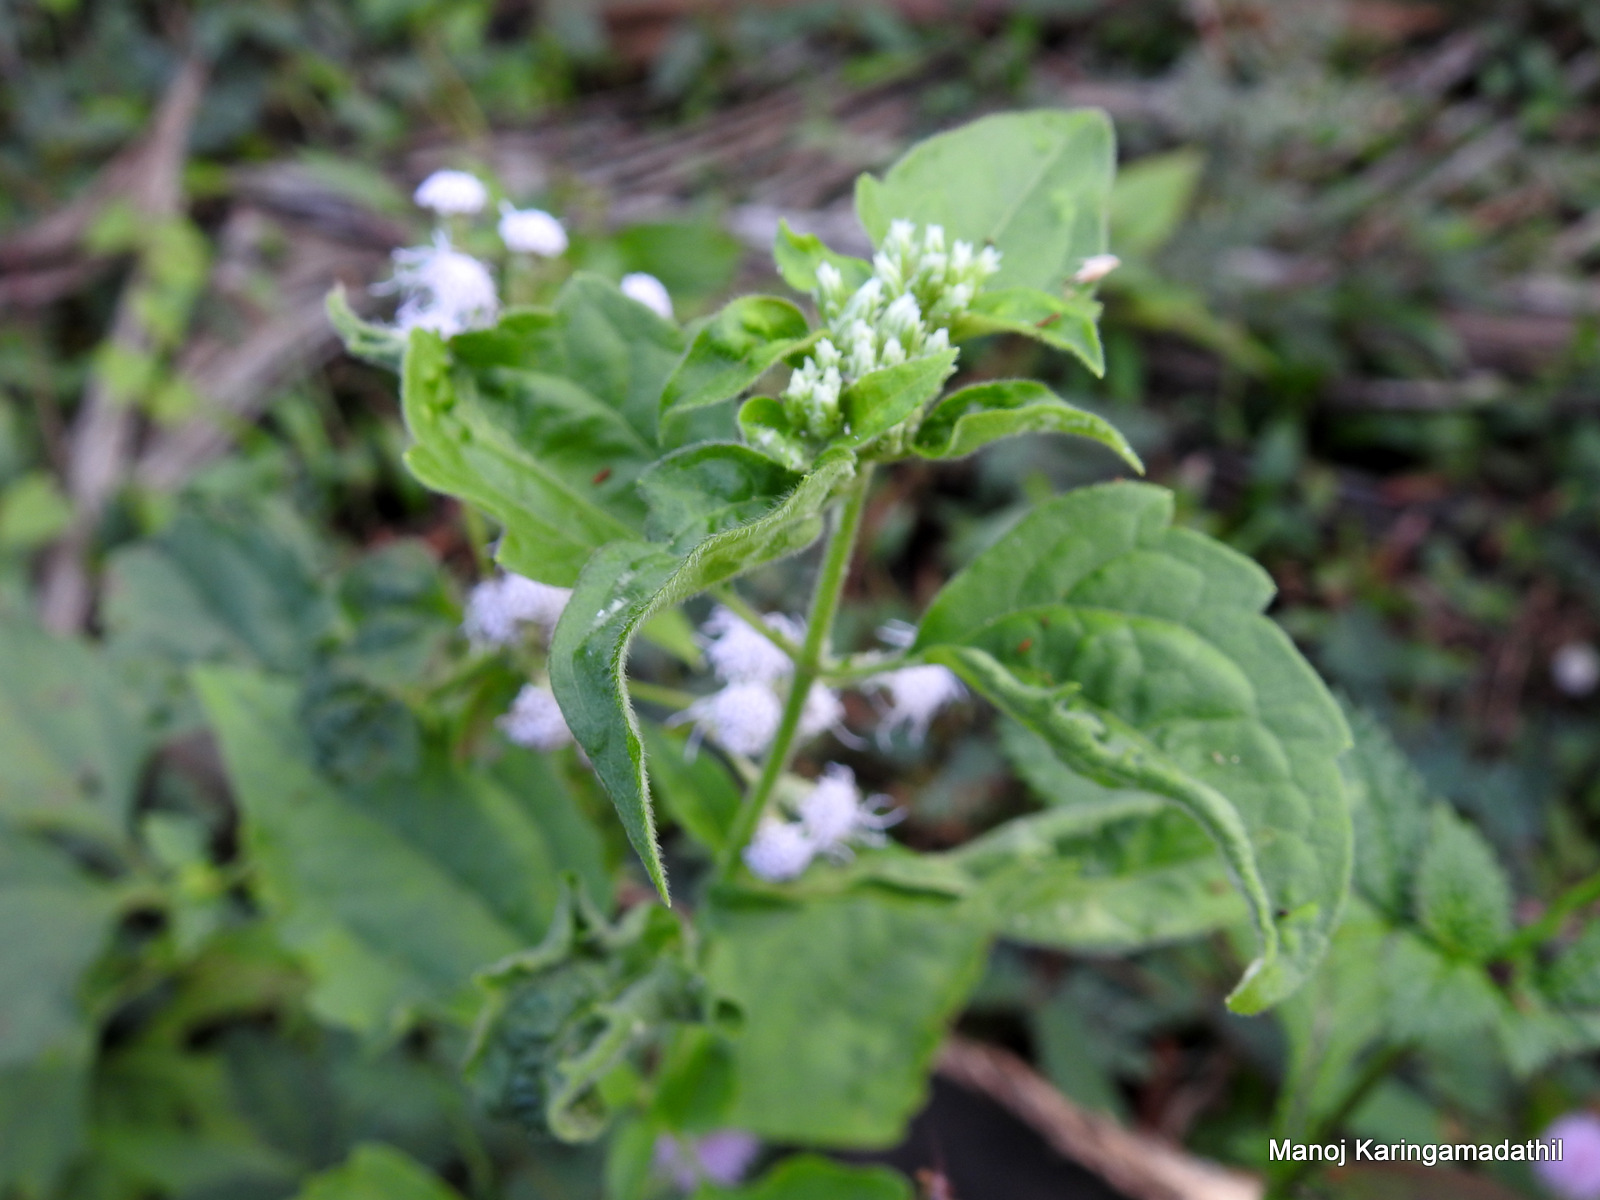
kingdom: Plantae
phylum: Tracheophyta
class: Magnoliopsida
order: Asterales
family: Asteraceae
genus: Chromolaena
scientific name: Chromolaena odorata
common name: Siamweed
